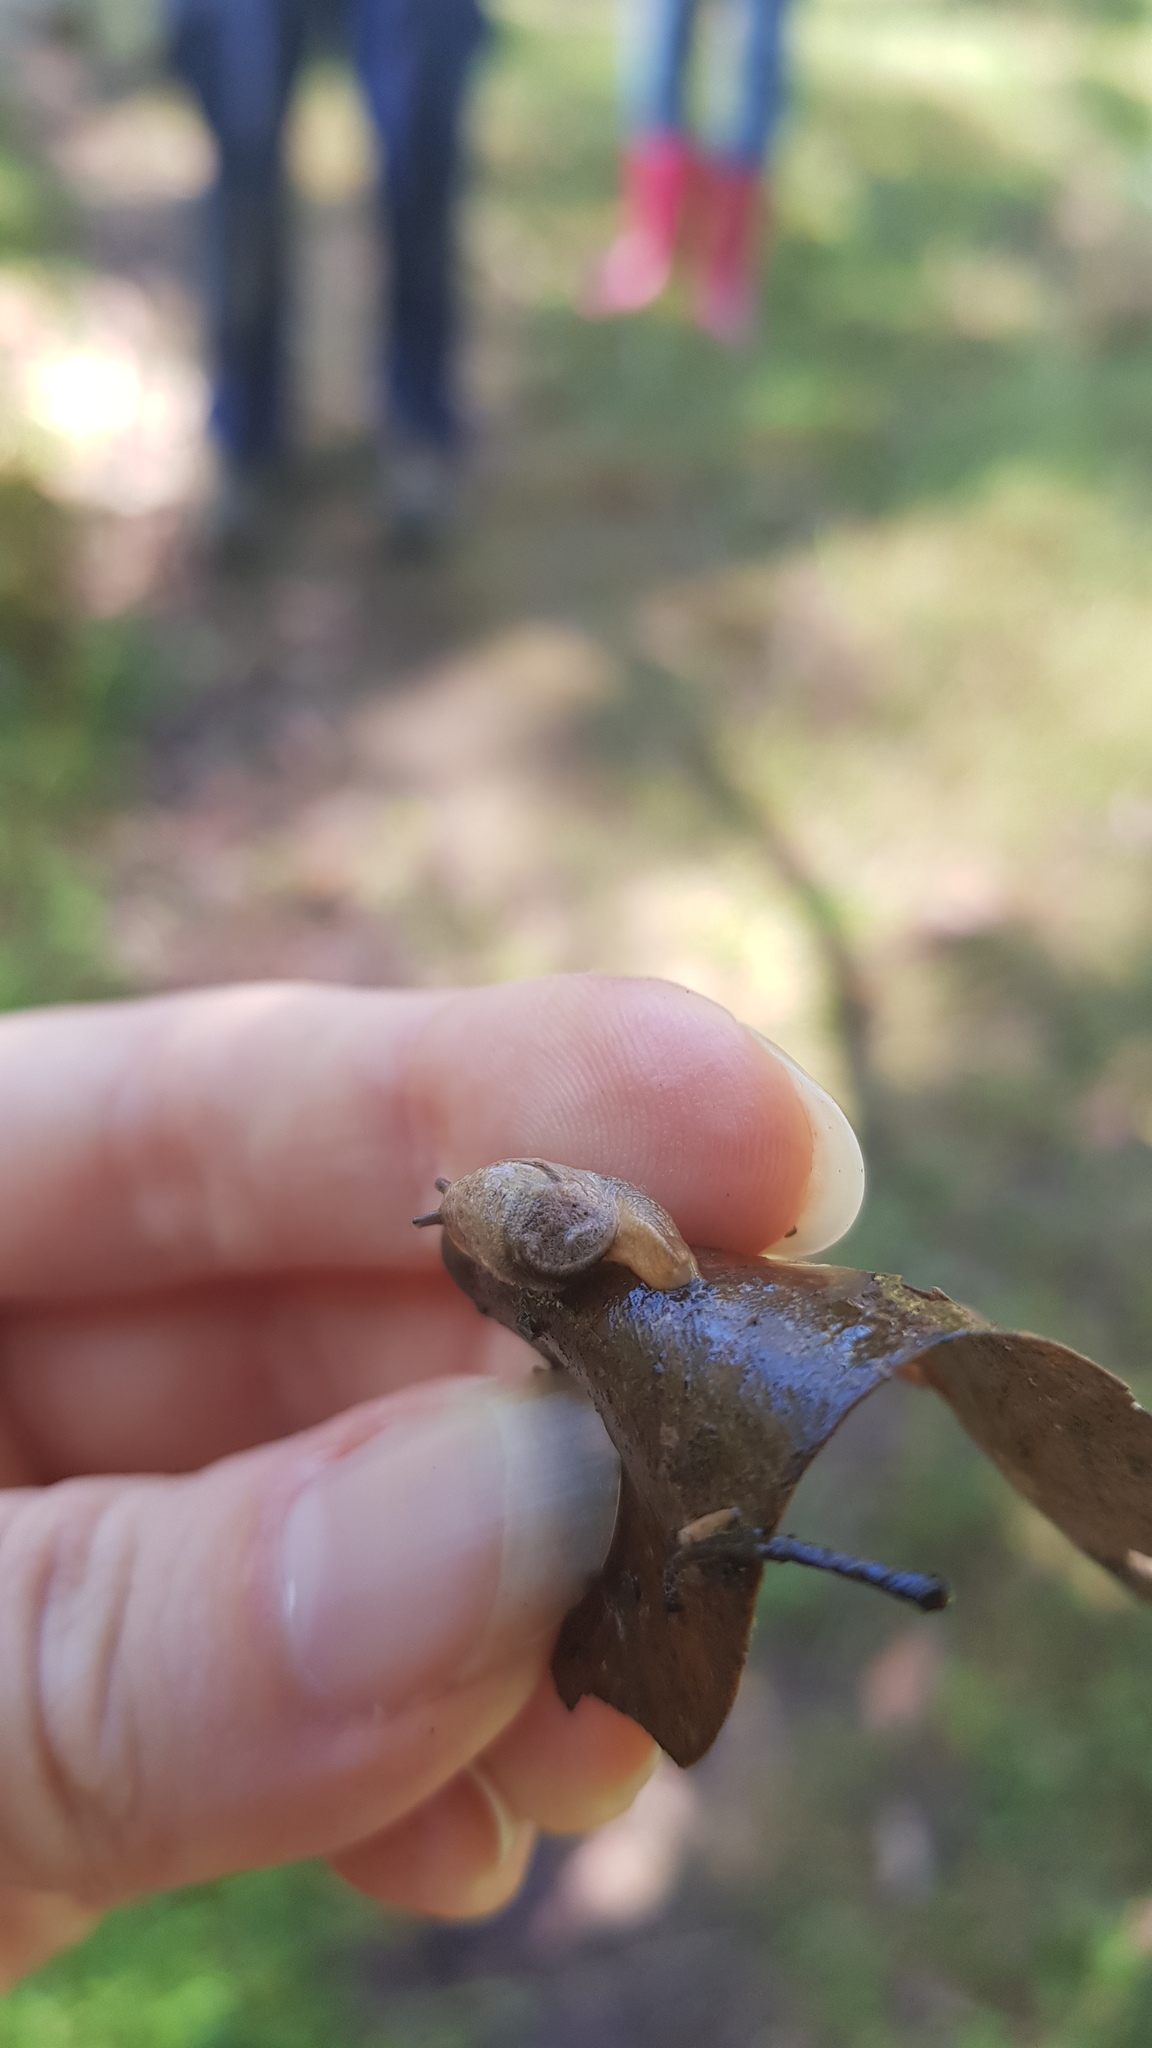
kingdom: Animalia
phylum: Mollusca
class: Gastropoda
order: Stylommatophora
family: Helicarionidae
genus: Ubiquitarion
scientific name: Ubiquitarion iridis
